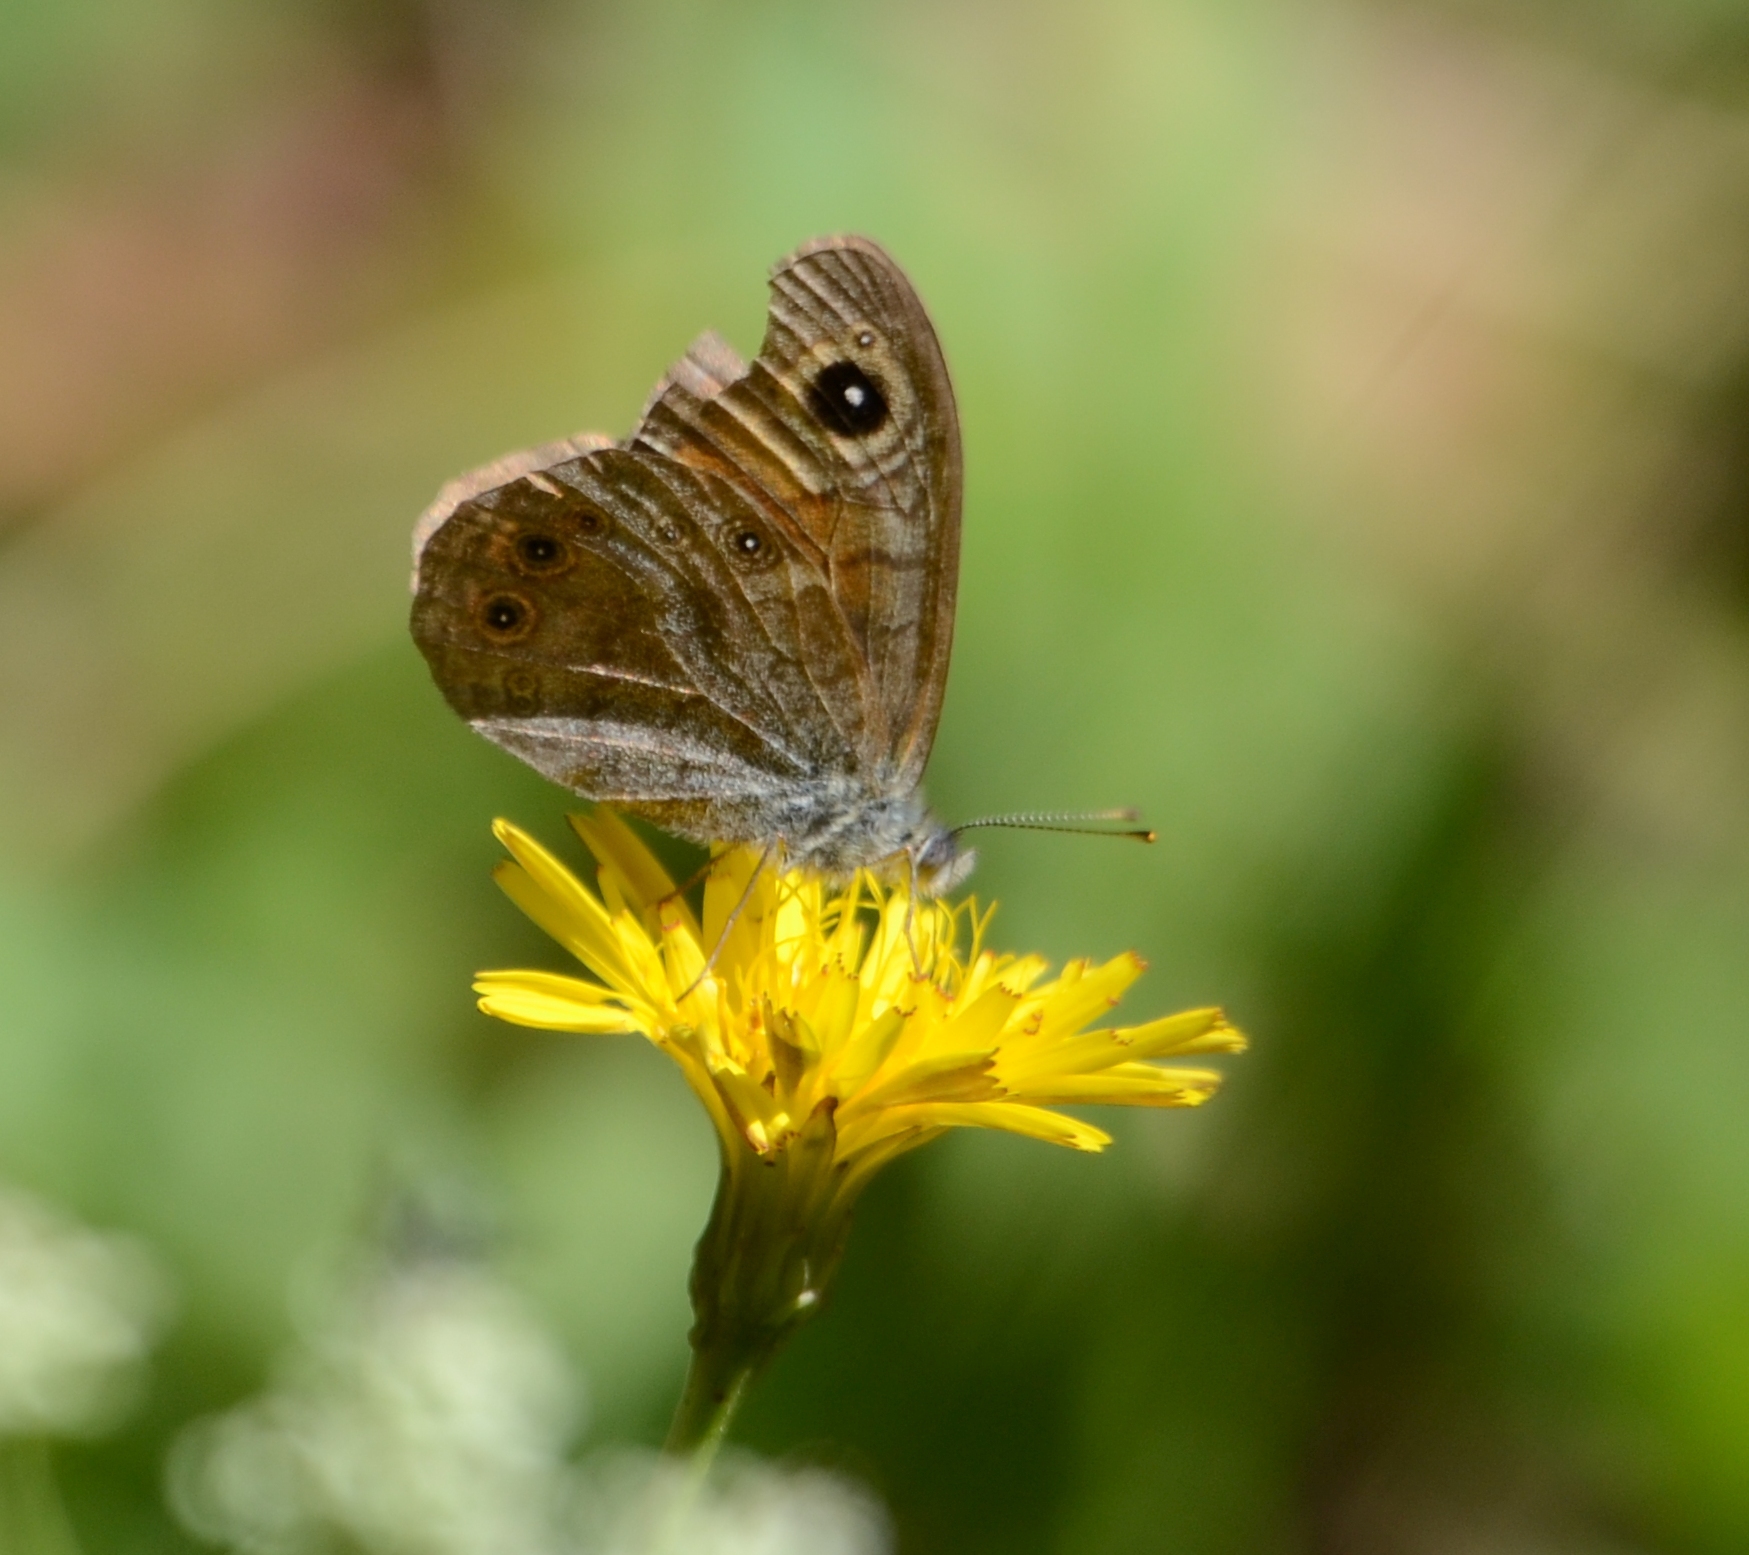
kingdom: Animalia
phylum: Arthropoda
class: Insecta
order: Lepidoptera
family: Nymphalidae
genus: Pararge
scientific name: Pararge Lasiommata maera
